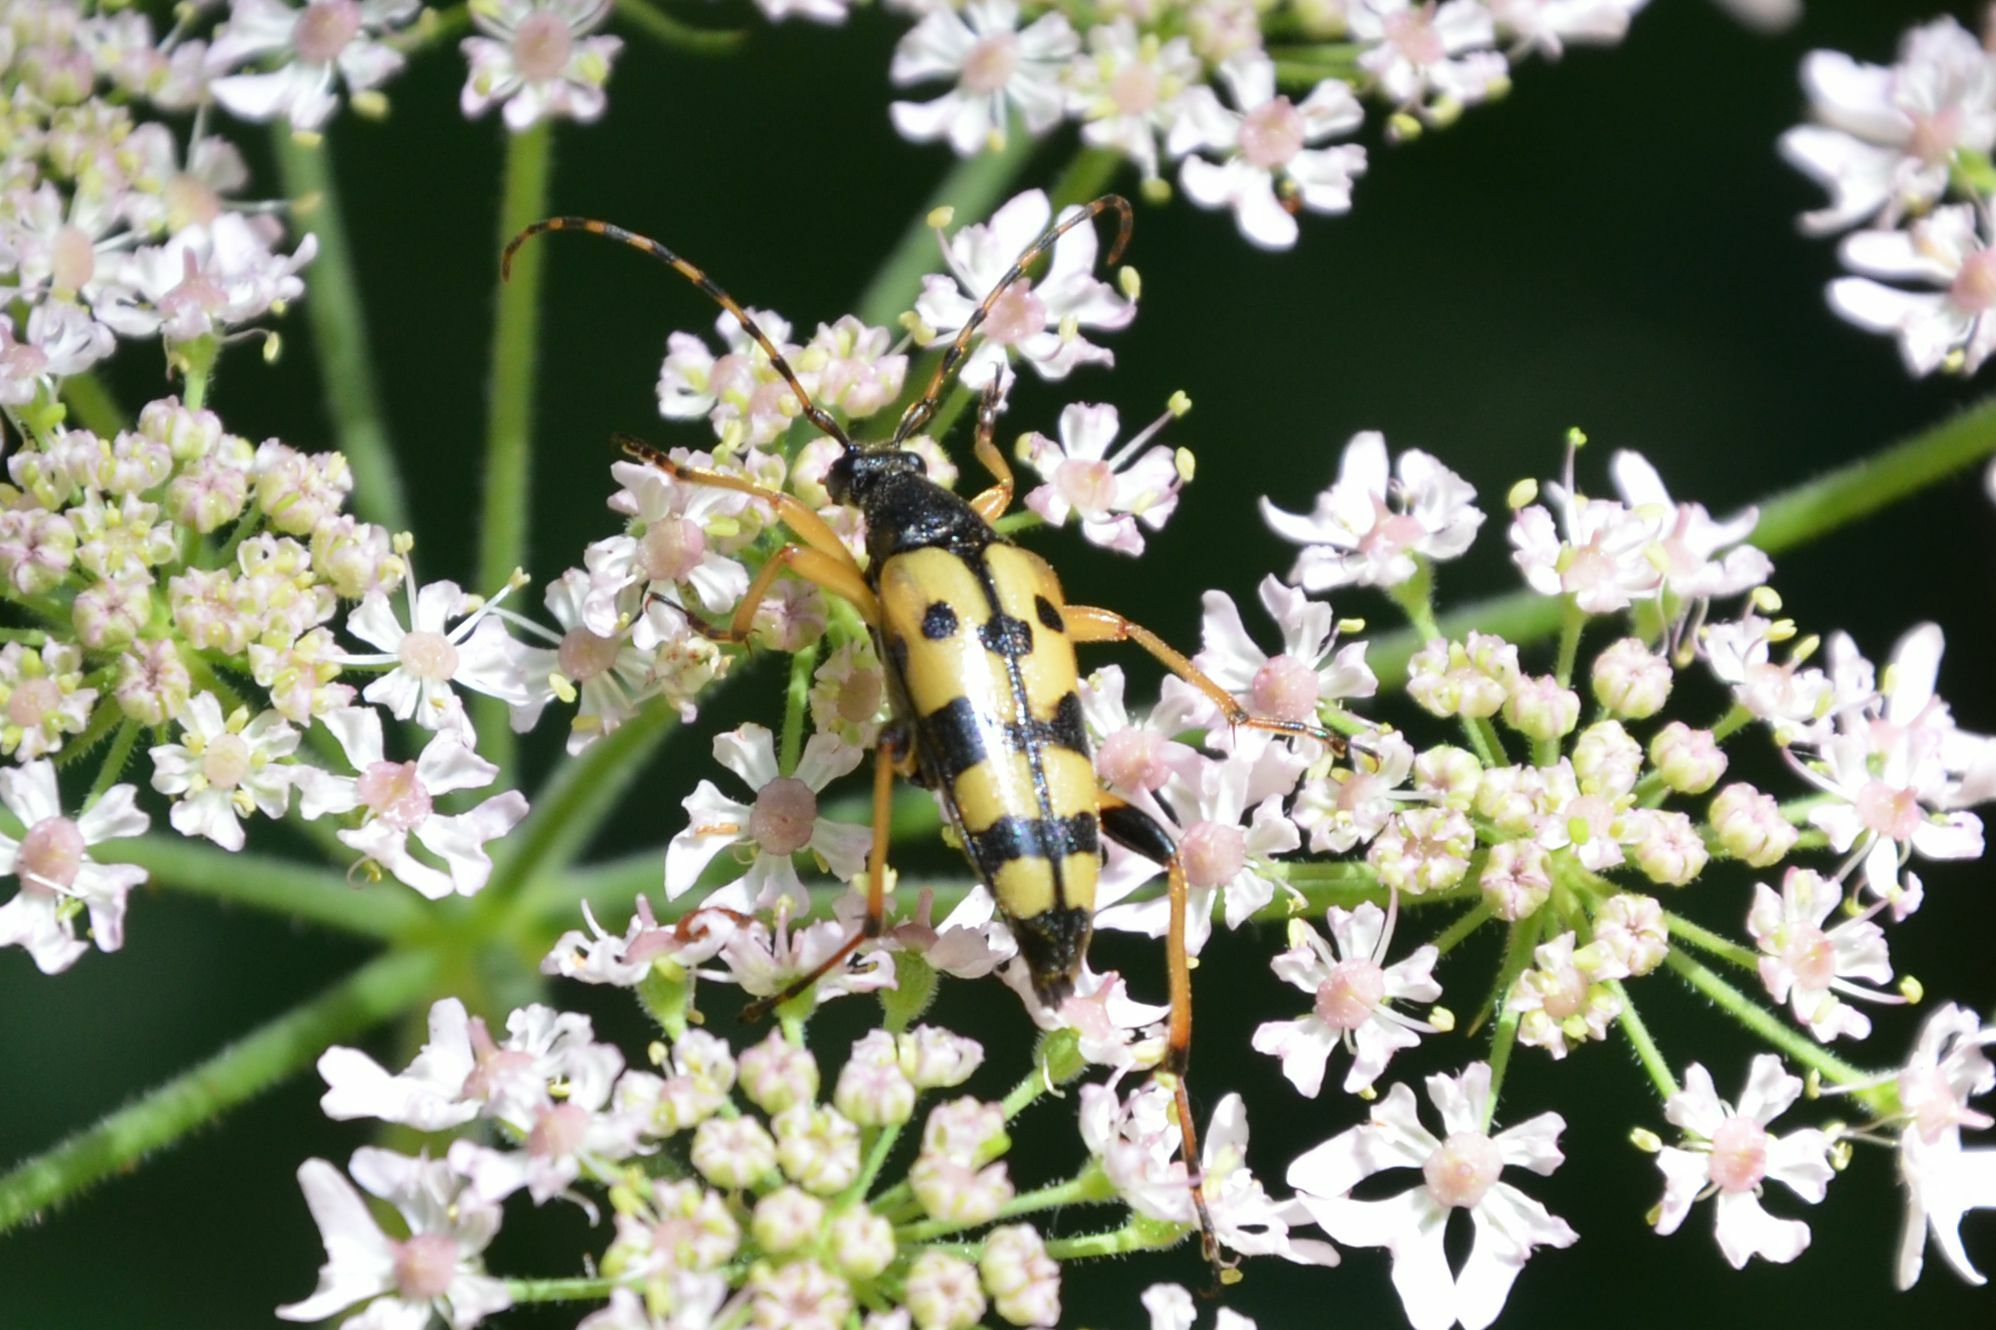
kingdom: Animalia
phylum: Arthropoda
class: Insecta
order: Coleoptera
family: Cerambycidae
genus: Rutpela
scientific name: Rutpela maculata
